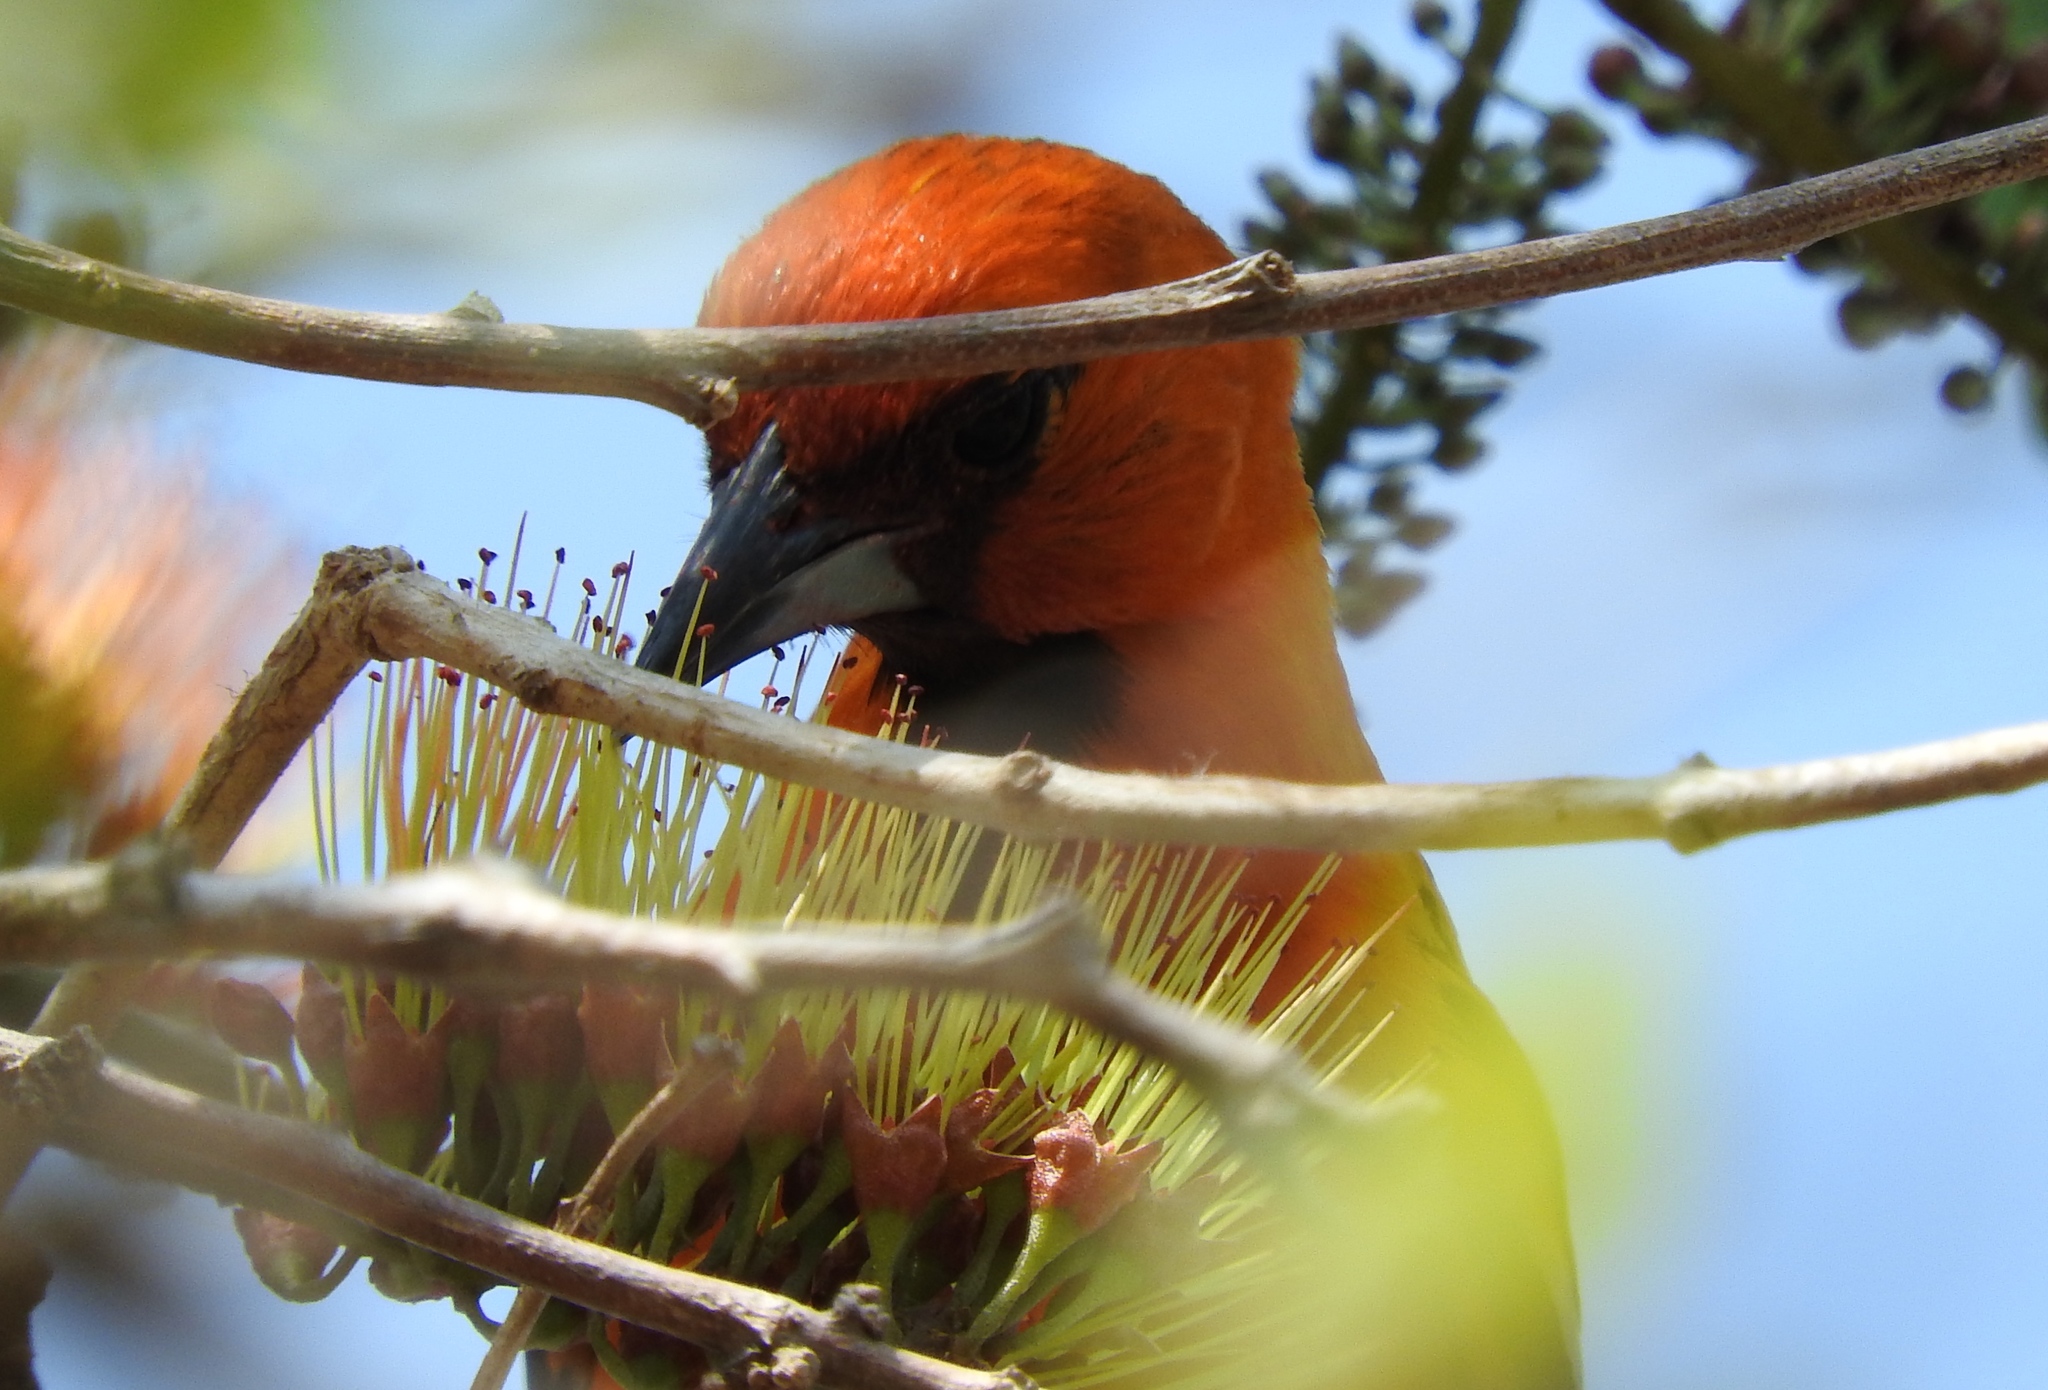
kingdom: Animalia
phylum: Chordata
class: Aves
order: Passeriformes
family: Icteridae
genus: Icterus
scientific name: Icterus pustulatus
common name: Streak-backed oriole
